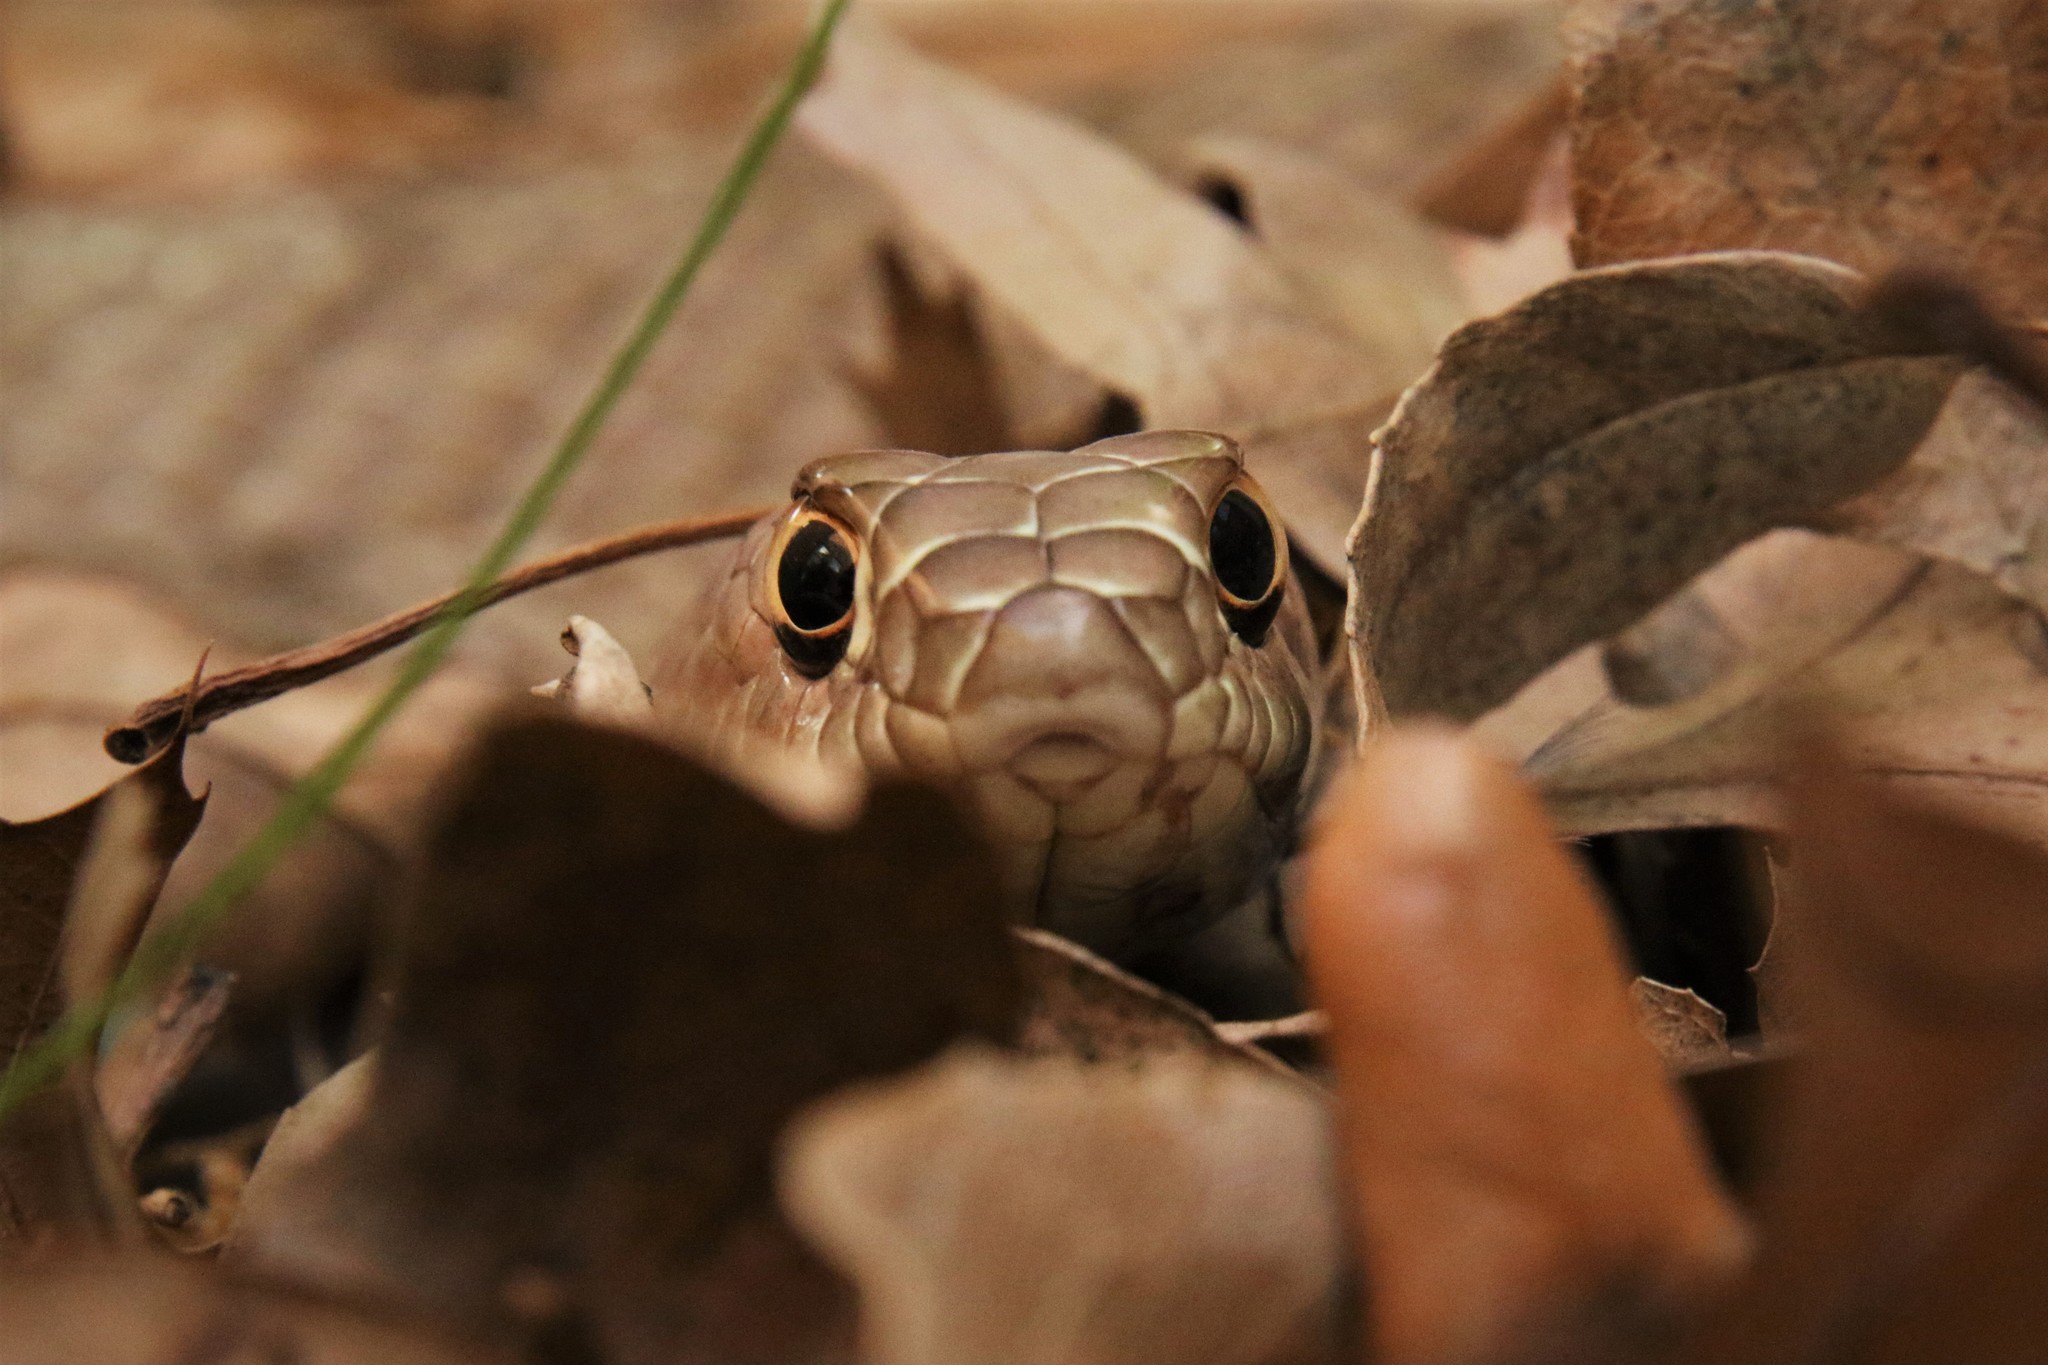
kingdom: Animalia
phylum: Chordata
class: Squamata
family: Colubridae
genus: Masticophis
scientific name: Masticophis flagellum
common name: Coachwhip
